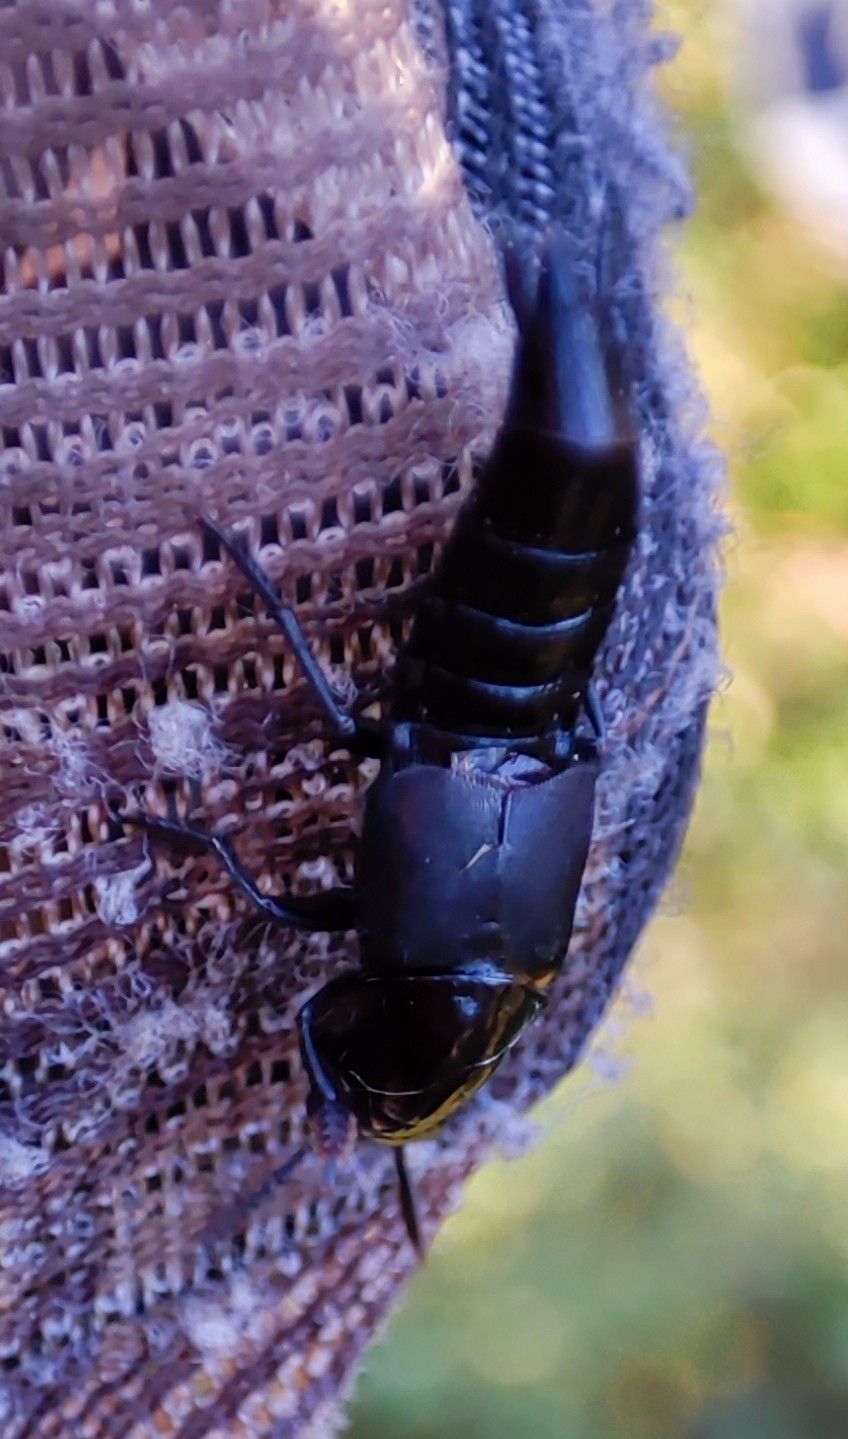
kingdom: Animalia
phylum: Arthropoda
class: Insecta
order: Coleoptera
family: Staphylinidae
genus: Quedius
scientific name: Quedius dilatatus
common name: Hornet rove-beetle
